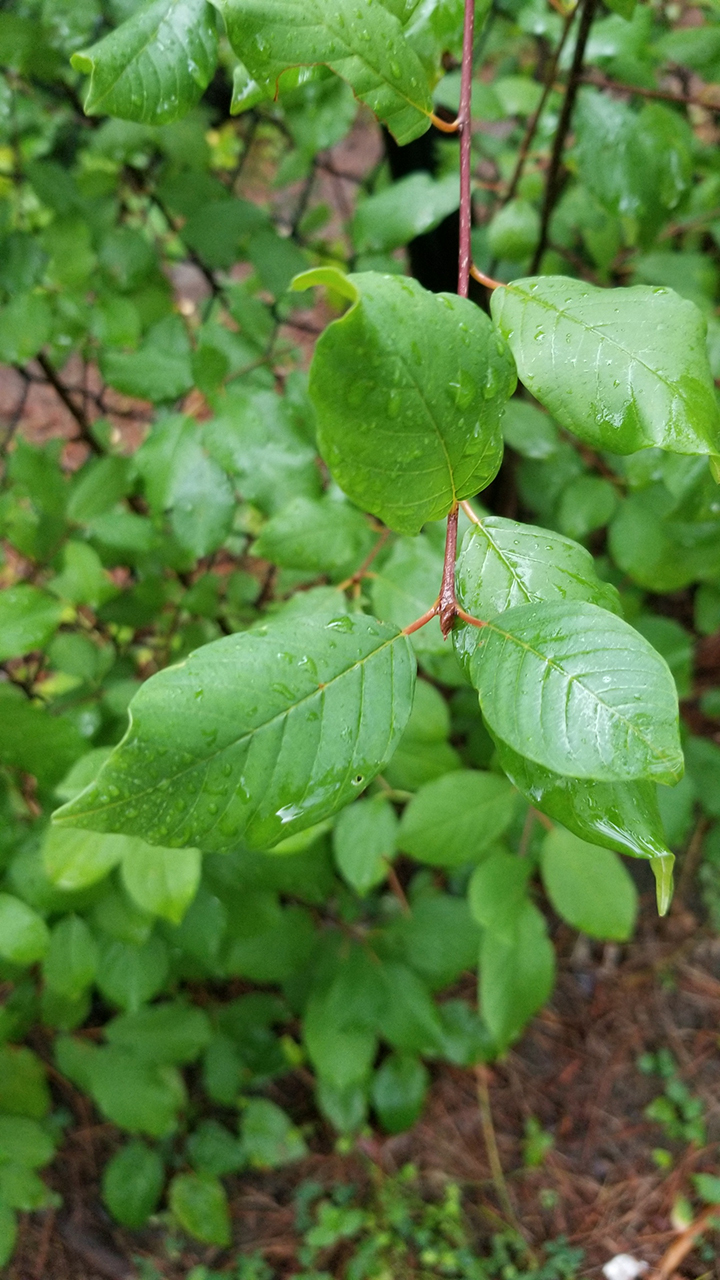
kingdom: Plantae
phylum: Tracheophyta
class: Magnoliopsida
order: Rosales
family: Rhamnaceae
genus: Frangula
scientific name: Frangula alnus
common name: Alder buckthorn
